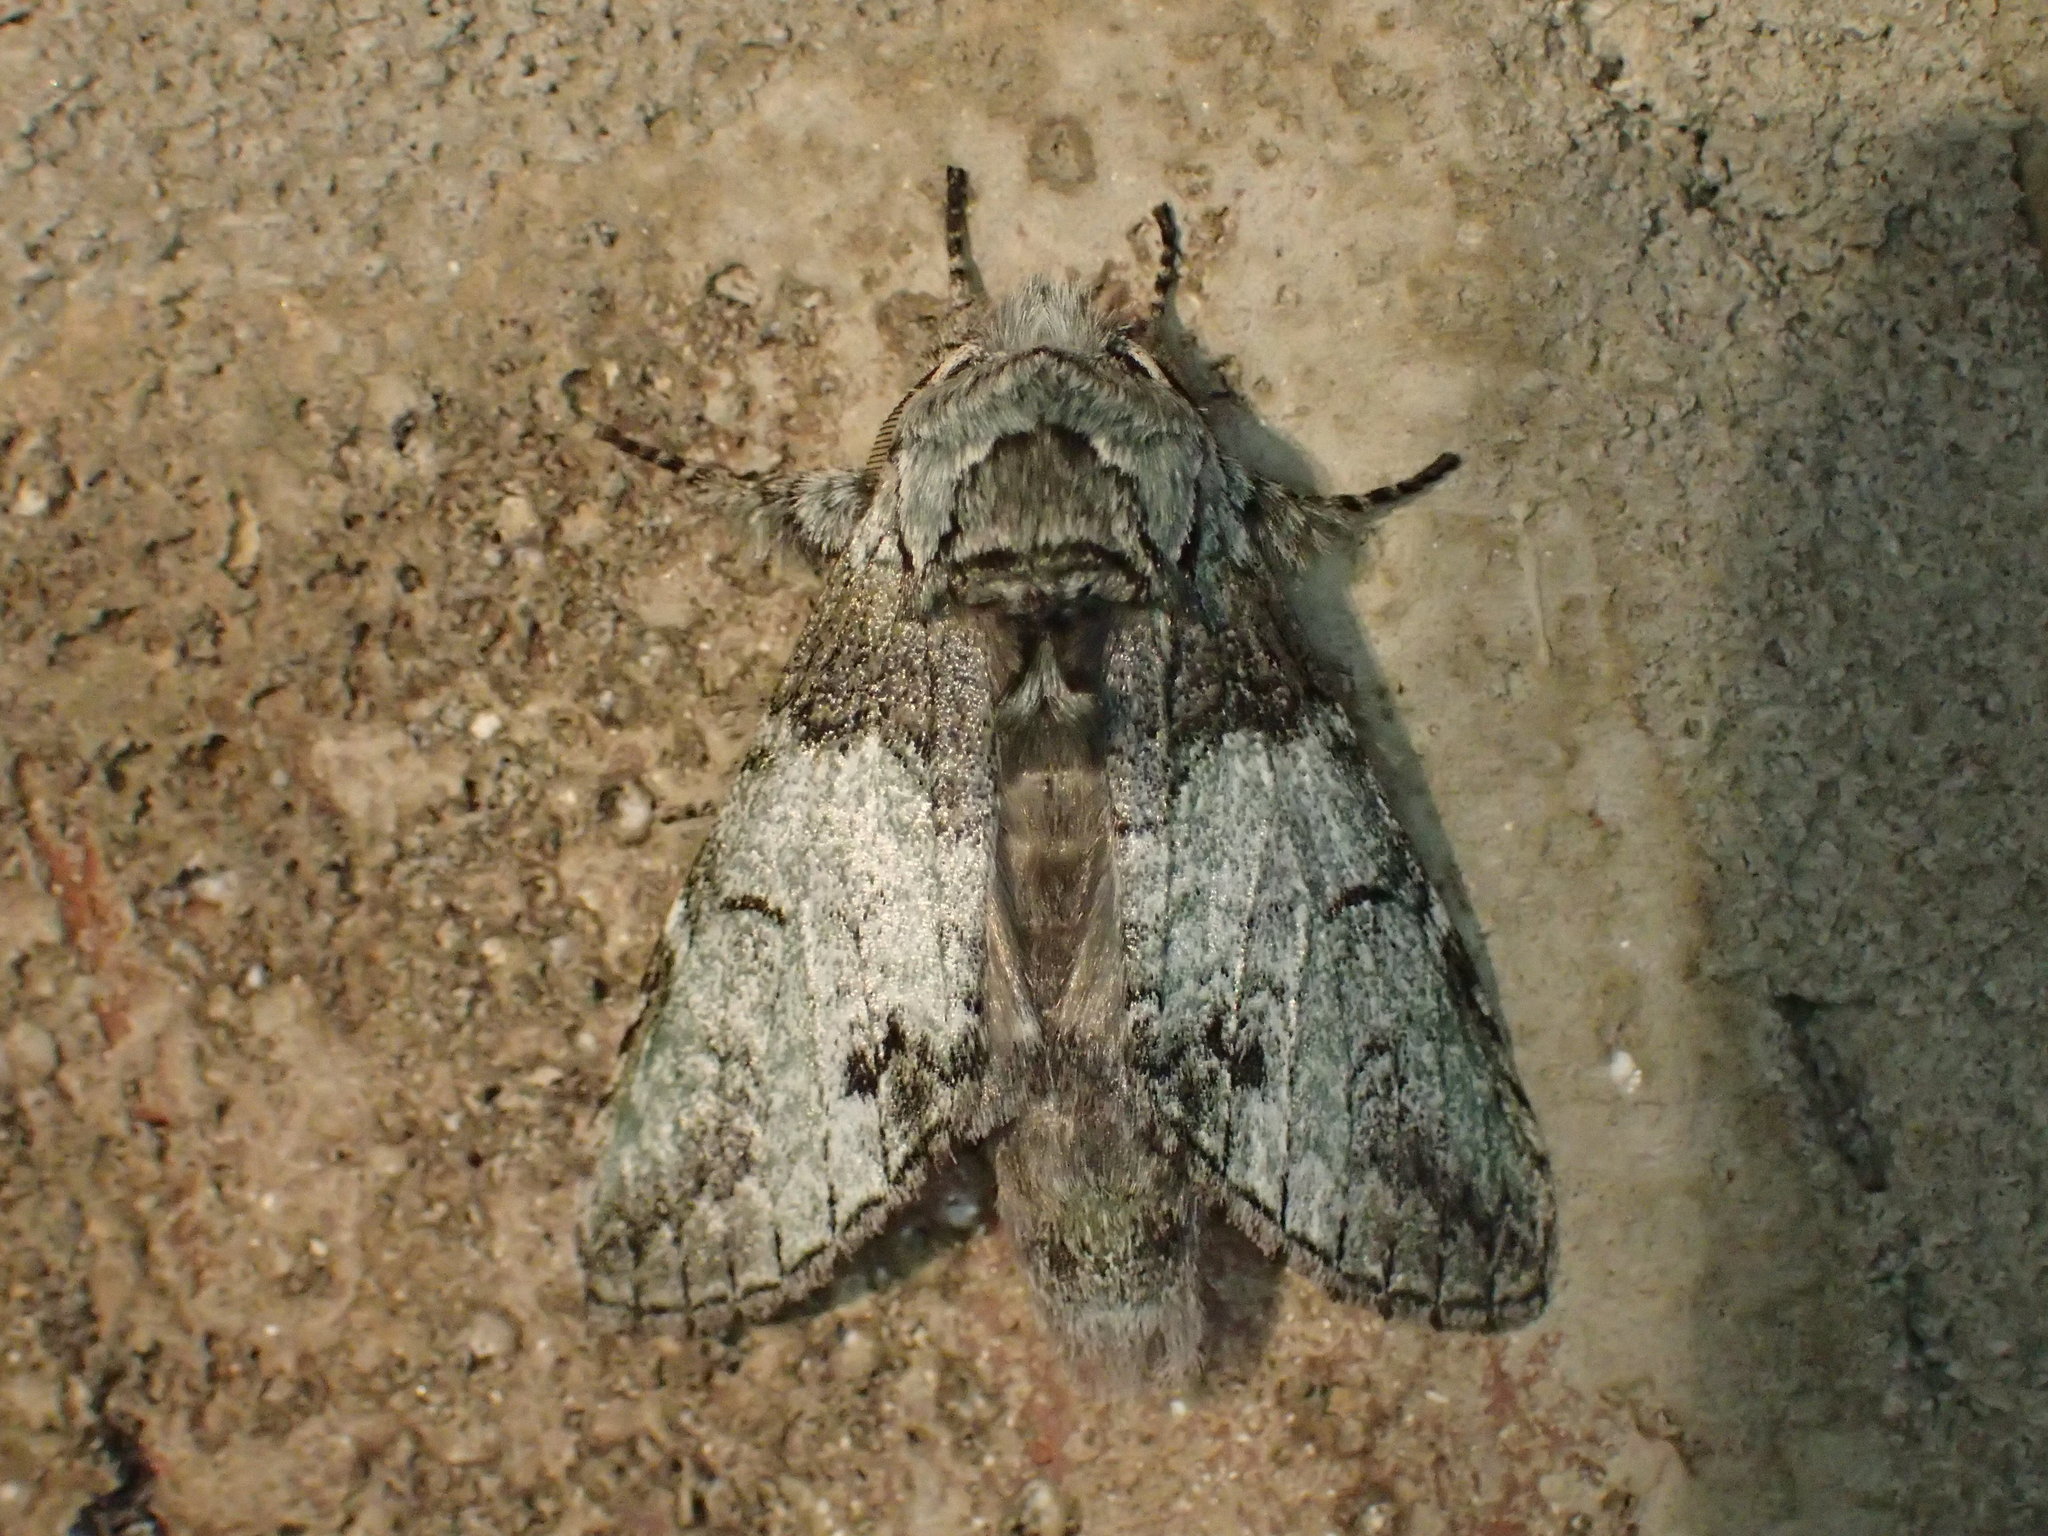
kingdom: Animalia
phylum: Arthropoda
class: Insecta
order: Lepidoptera
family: Notodontidae
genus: Macrurocampa
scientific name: Macrurocampa marthesia
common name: Mottled prominent
